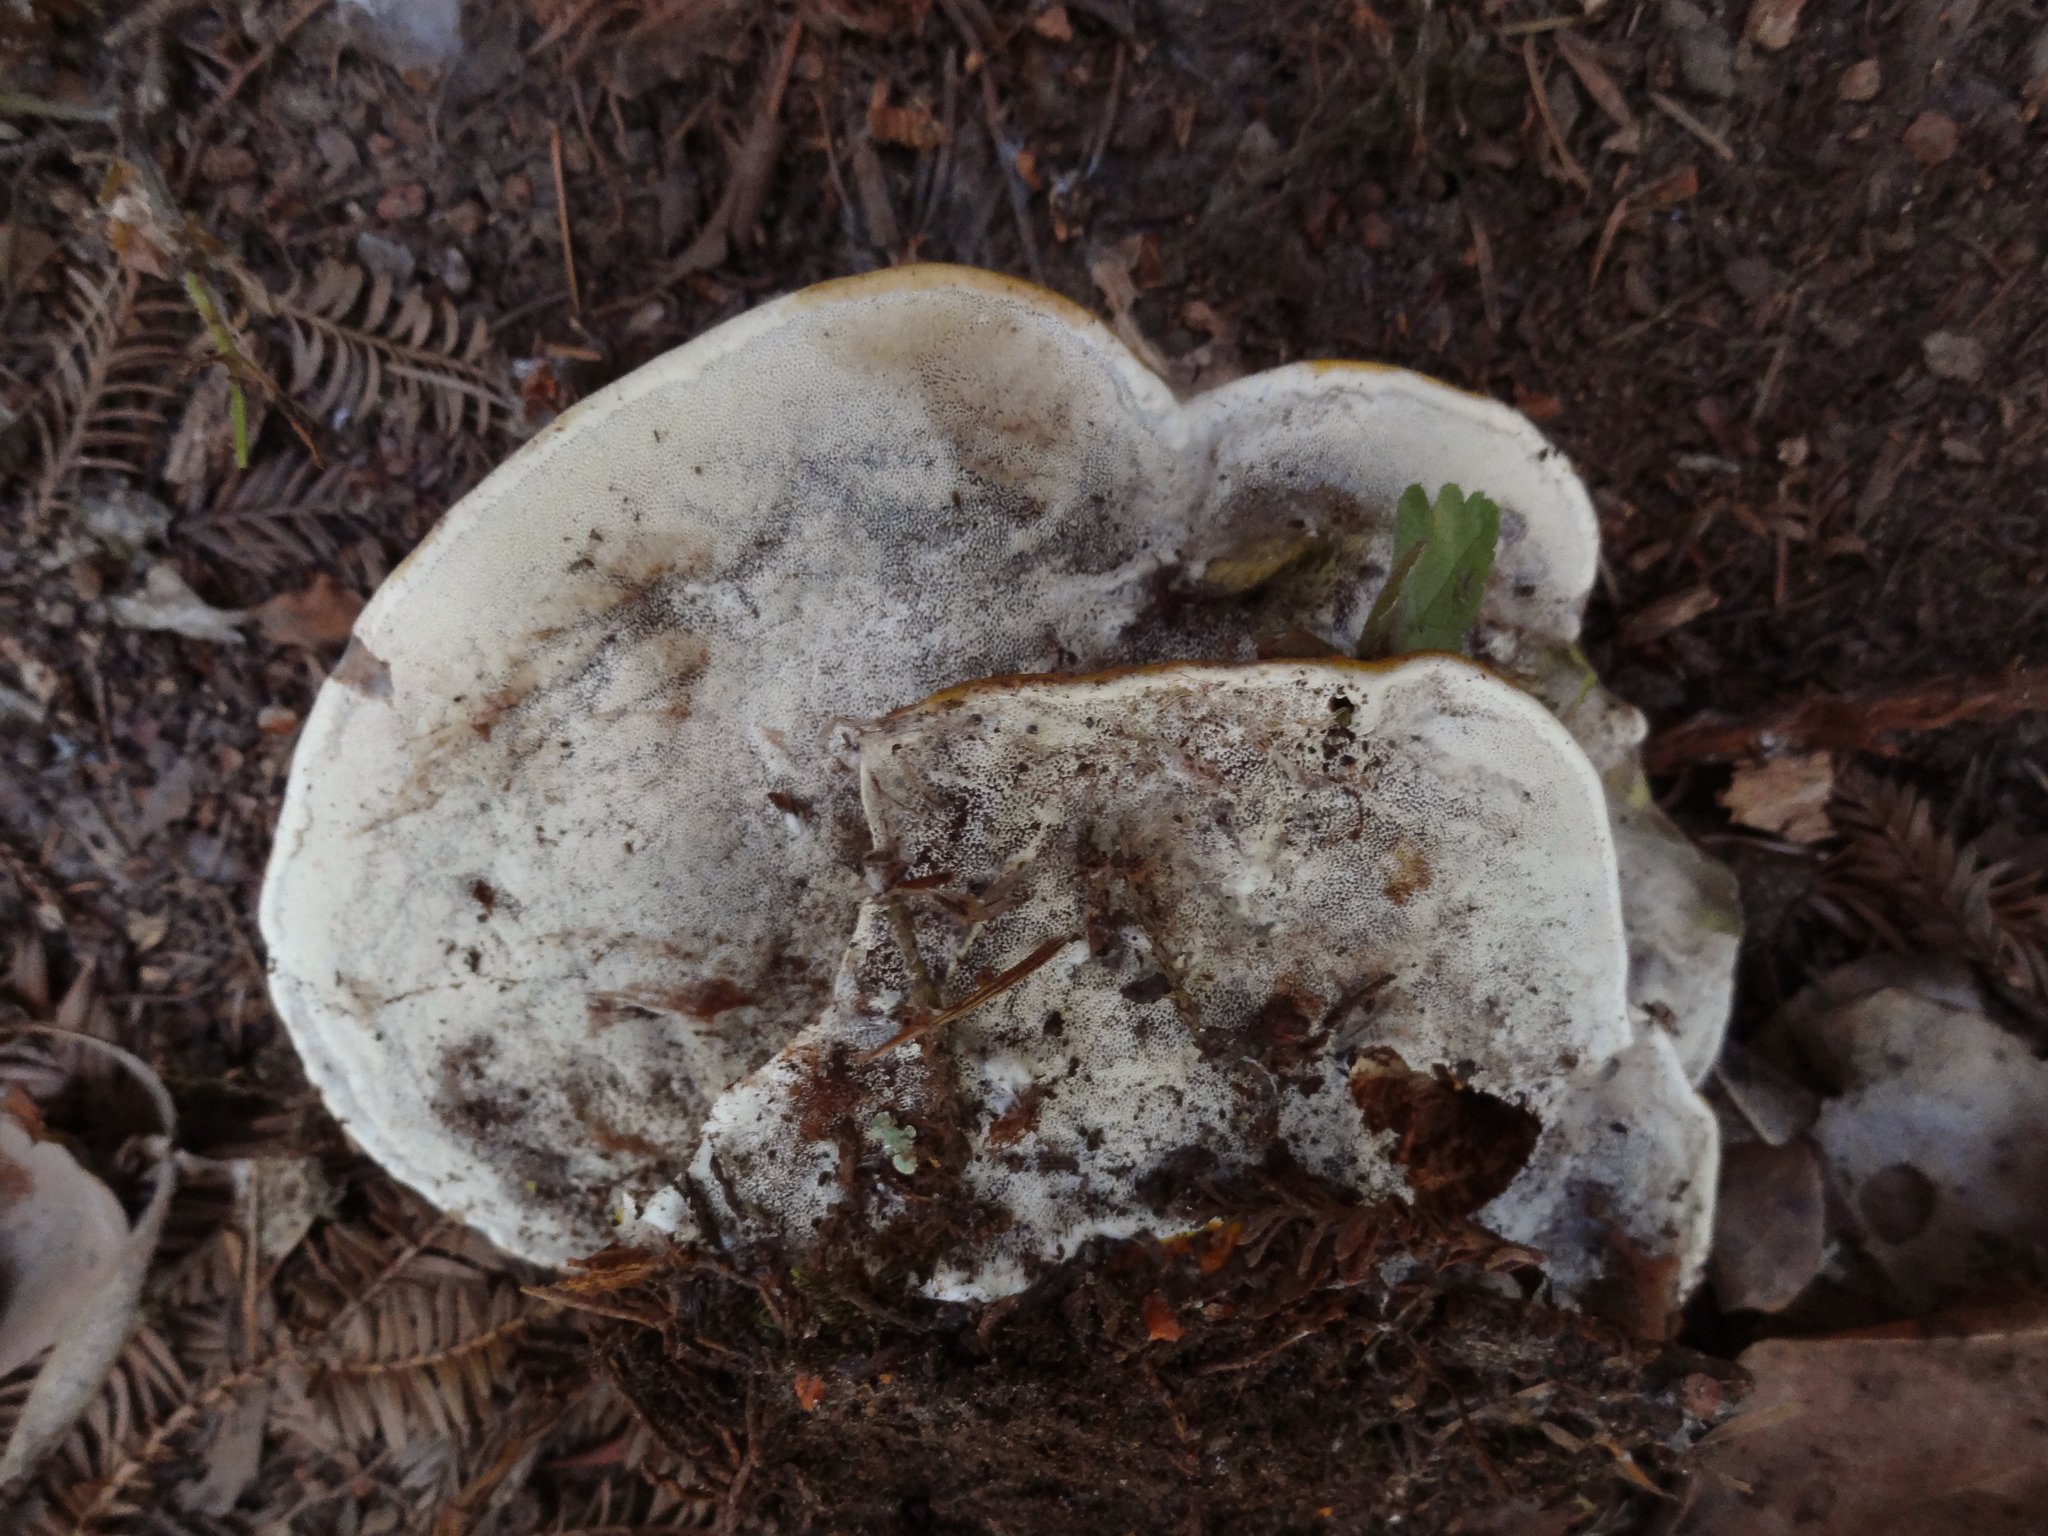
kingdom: Fungi
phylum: Basidiomycota
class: Agaricomycetes
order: Polyporales
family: Polyporaceae
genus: Ganoderma
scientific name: Ganoderma polychromum
